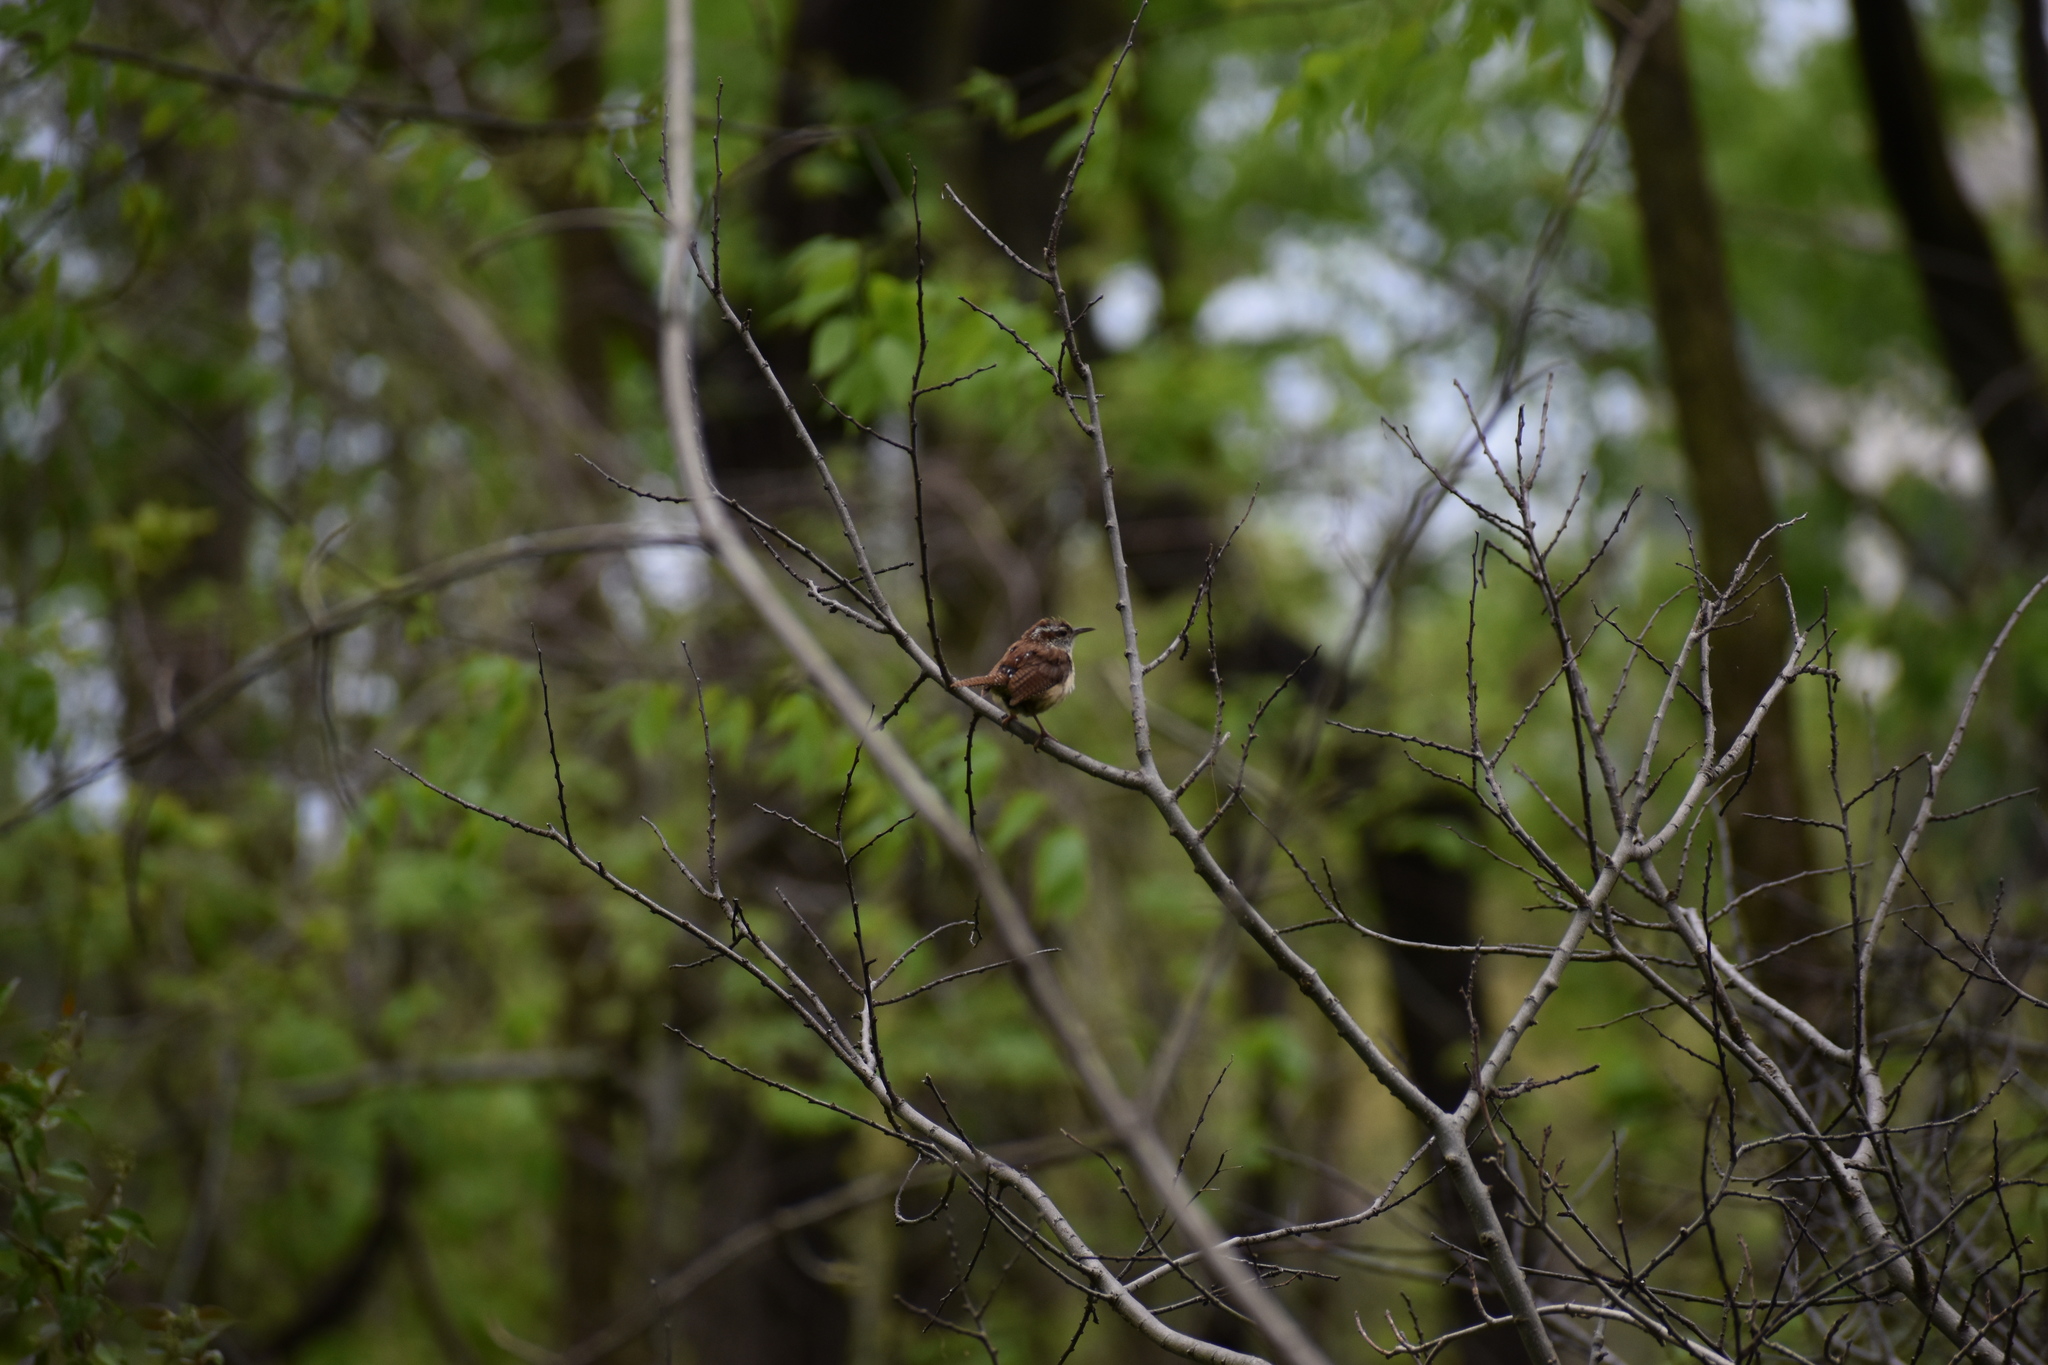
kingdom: Animalia
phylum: Chordata
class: Aves
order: Passeriformes
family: Troglodytidae
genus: Thryothorus
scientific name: Thryothorus ludovicianus
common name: Carolina wren
